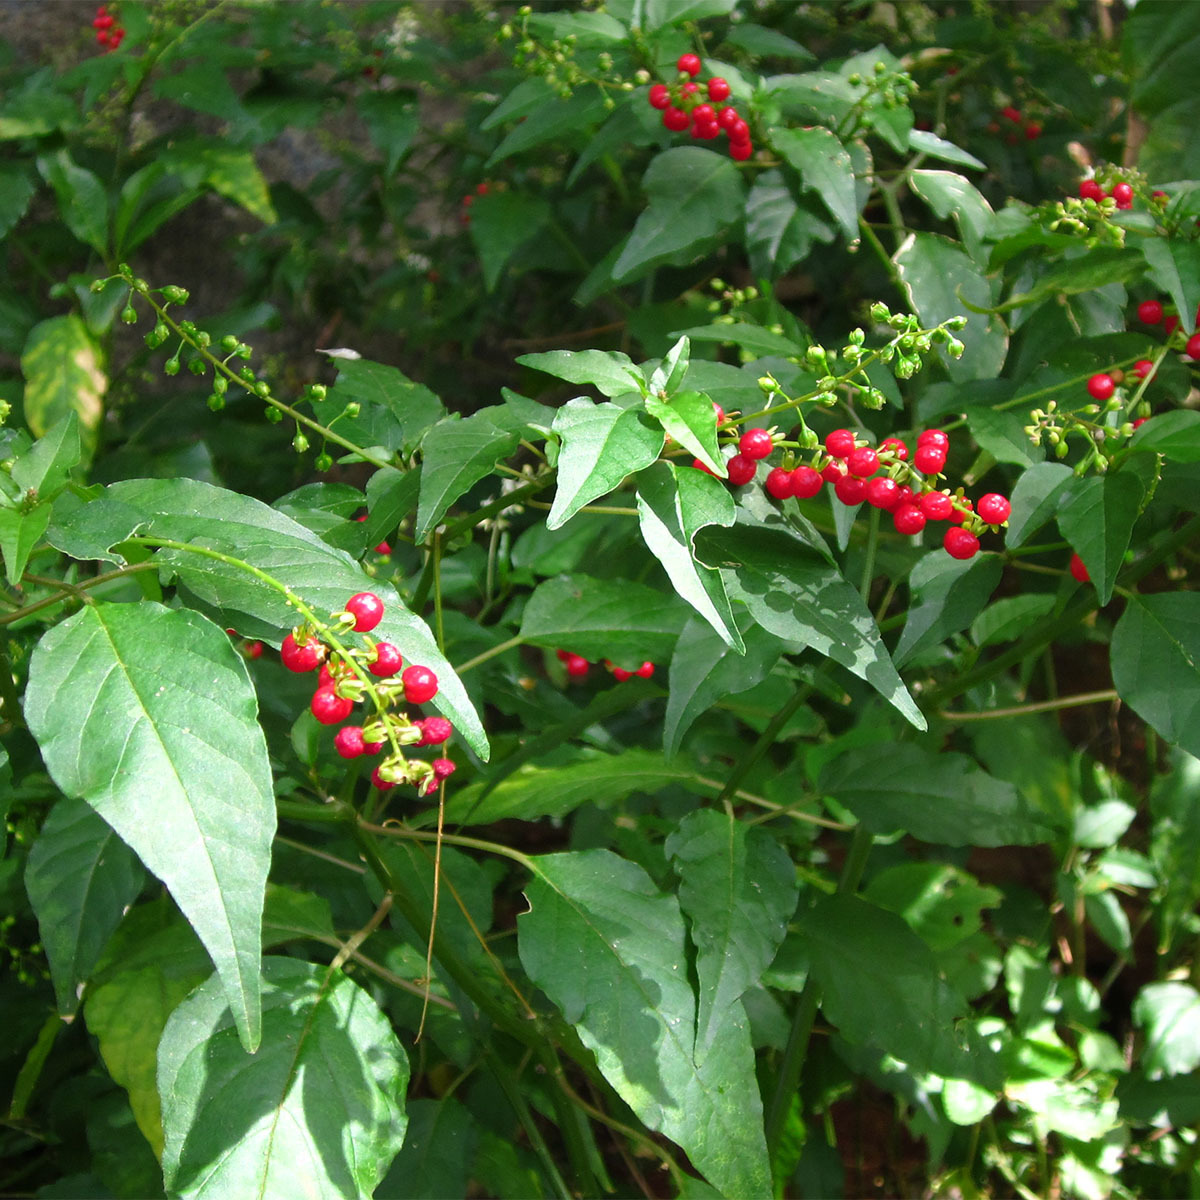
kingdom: Plantae
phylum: Tracheophyta
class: Magnoliopsida
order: Caryophyllales
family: Phytolaccaceae
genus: Rivina
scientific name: Rivina humilis
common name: Rougeplant
